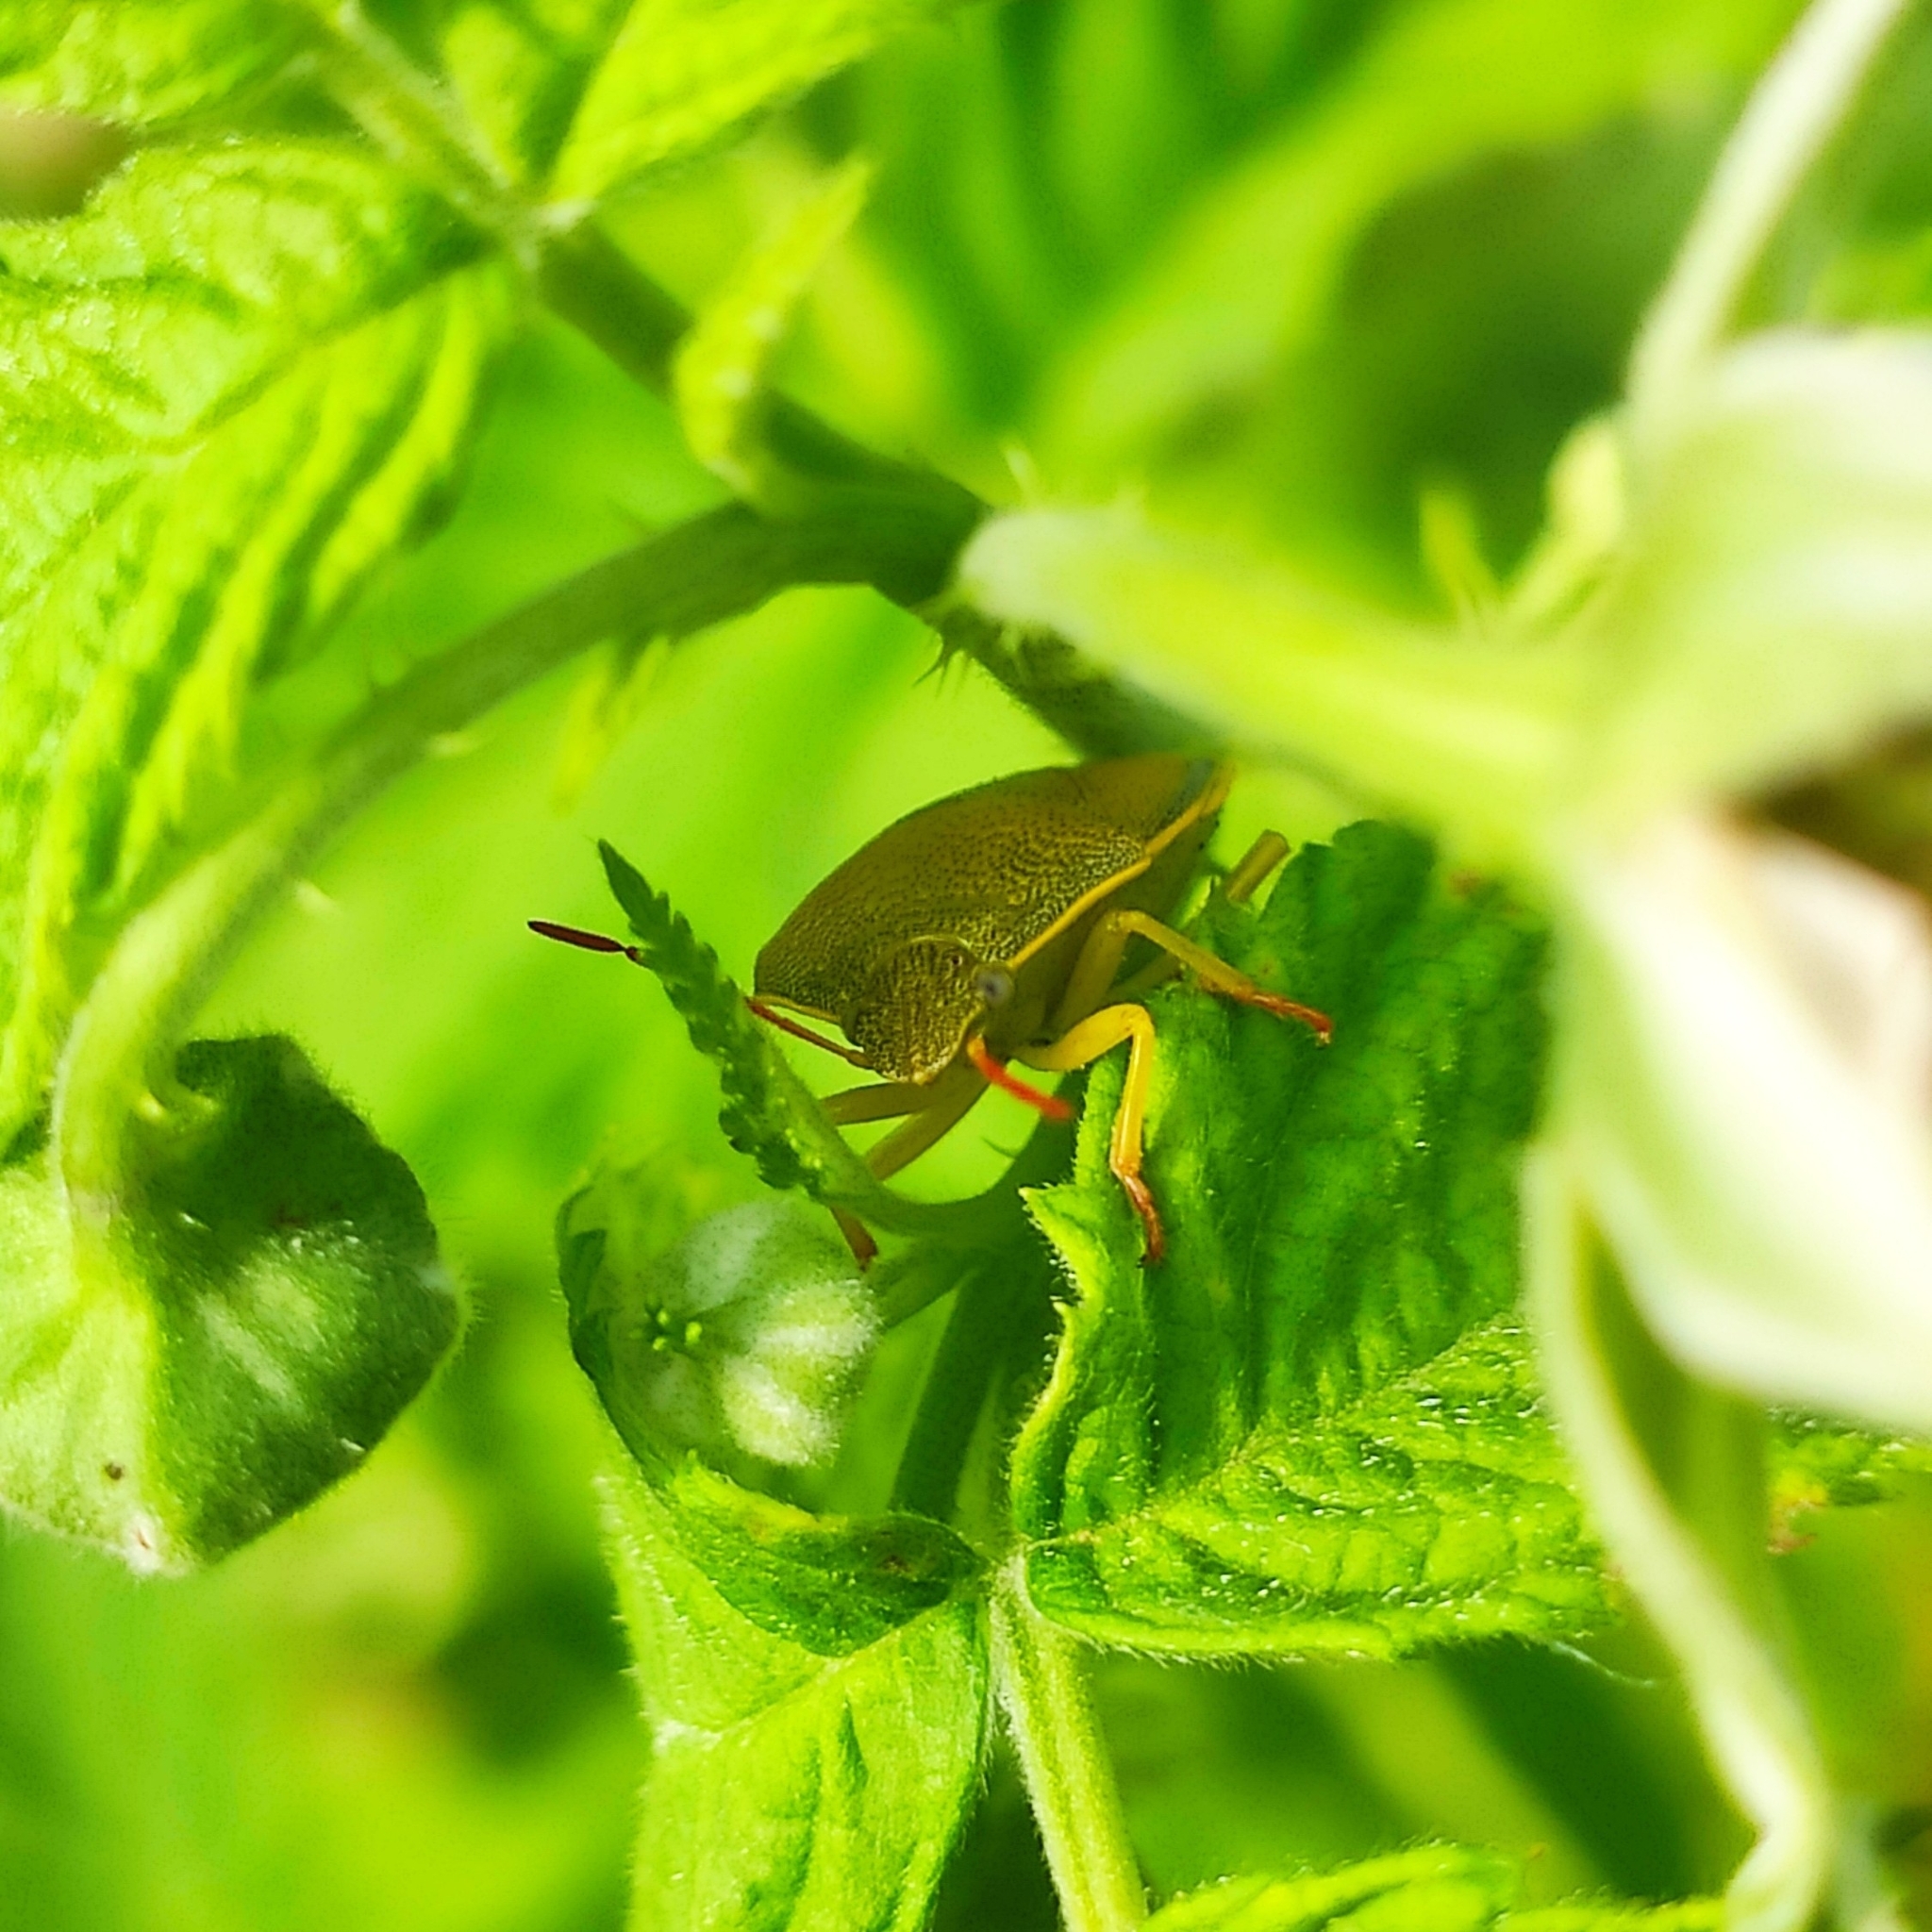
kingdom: Animalia
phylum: Arthropoda
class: Insecta
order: Hemiptera
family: Pentatomidae
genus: Piezodorus
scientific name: Piezodorus lituratus
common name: Stink bug
